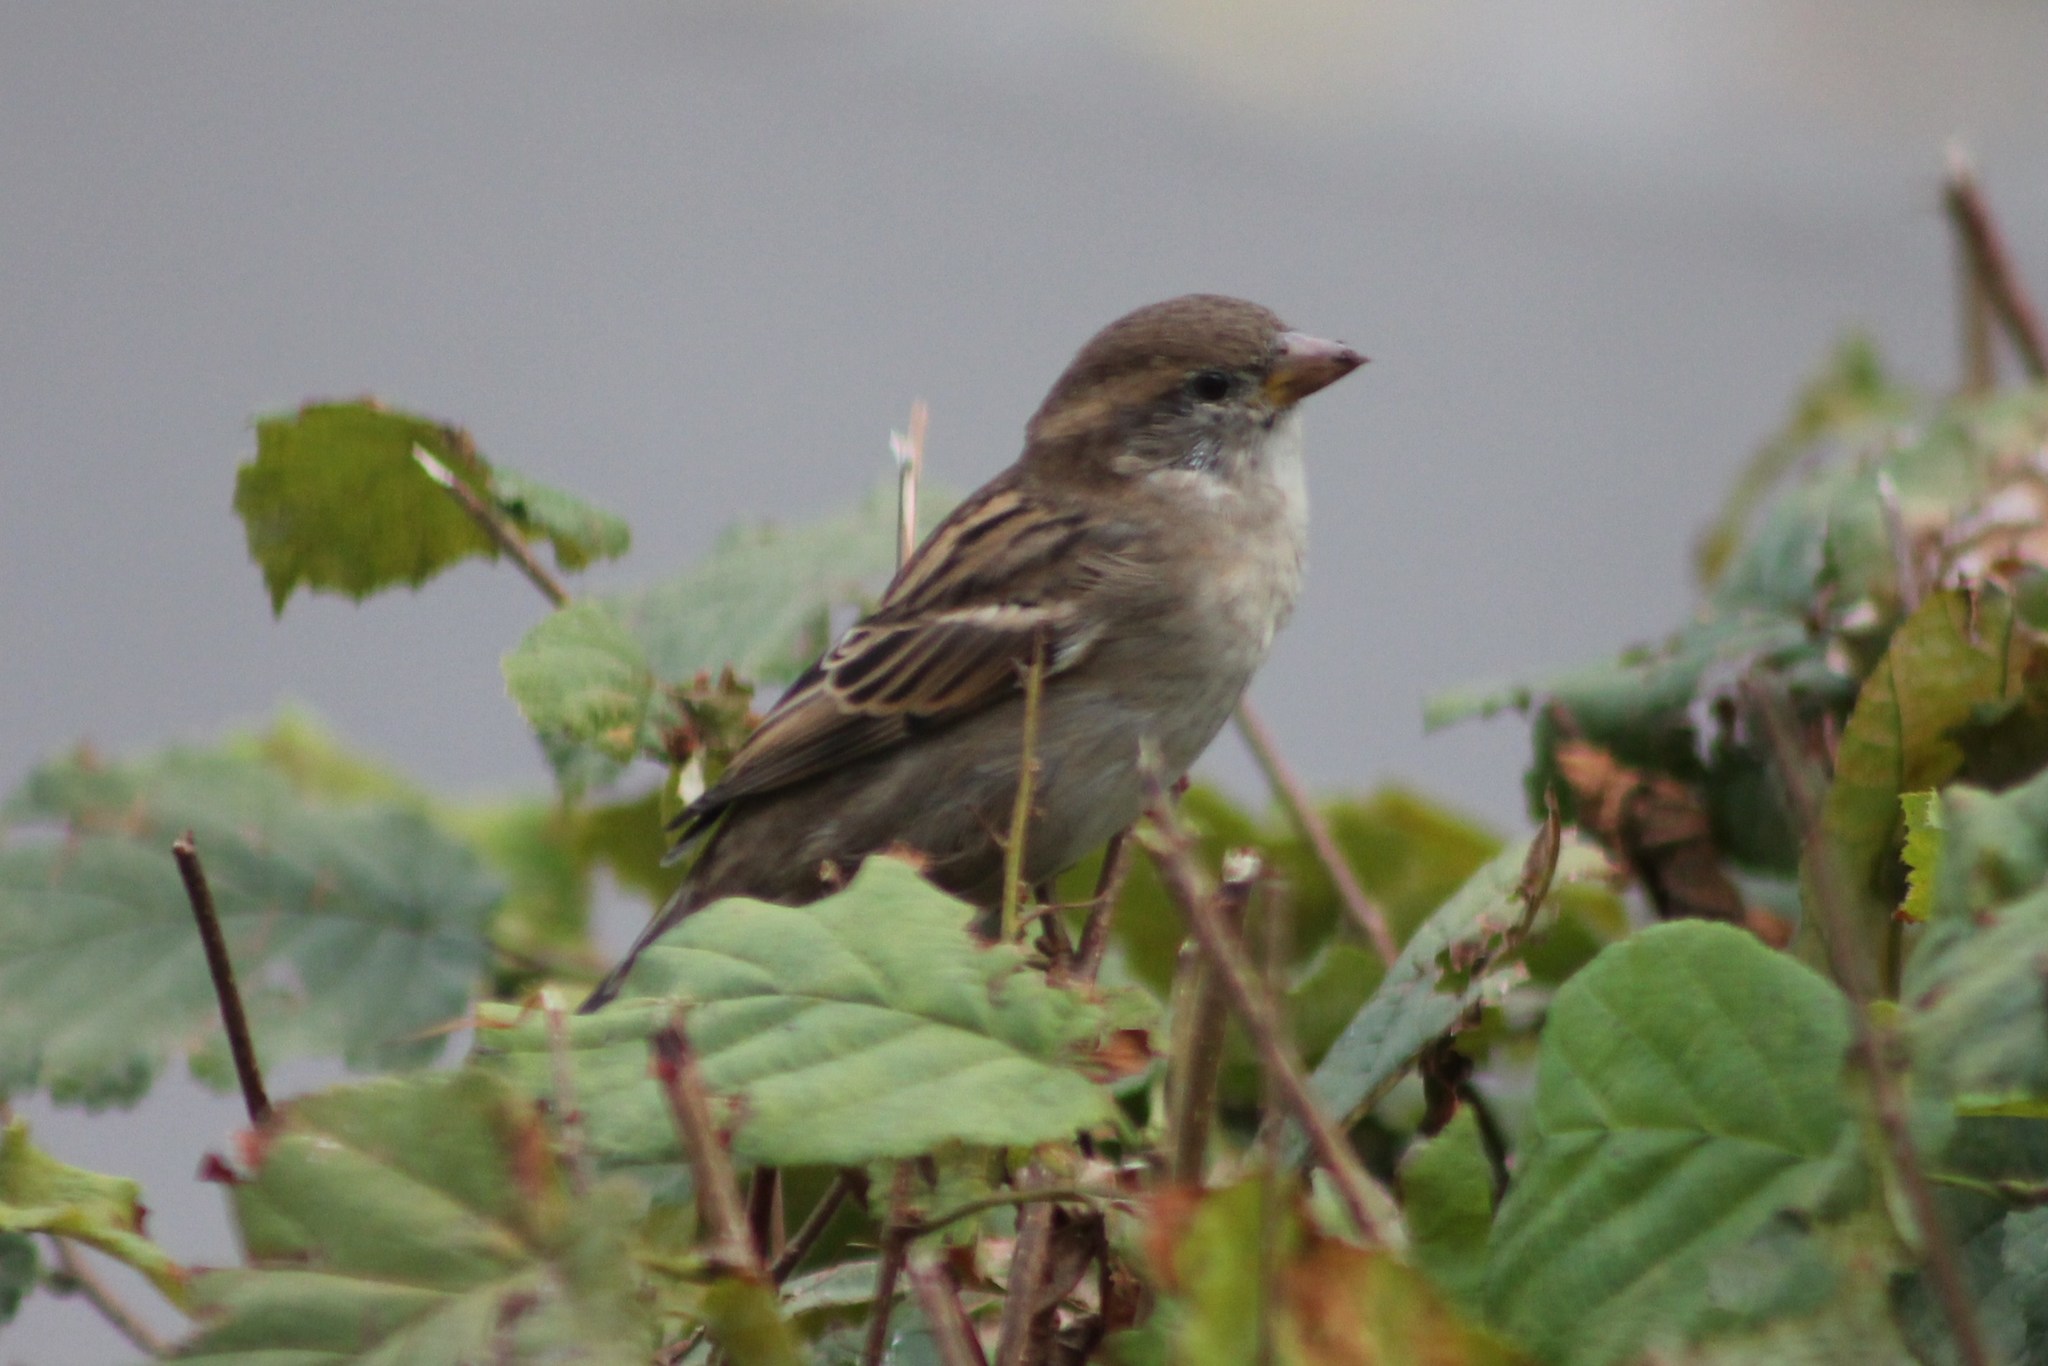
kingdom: Animalia
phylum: Chordata
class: Aves
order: Passeriformes
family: Passeridae
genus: Passer
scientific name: Passer domesticus
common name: House sparrow
